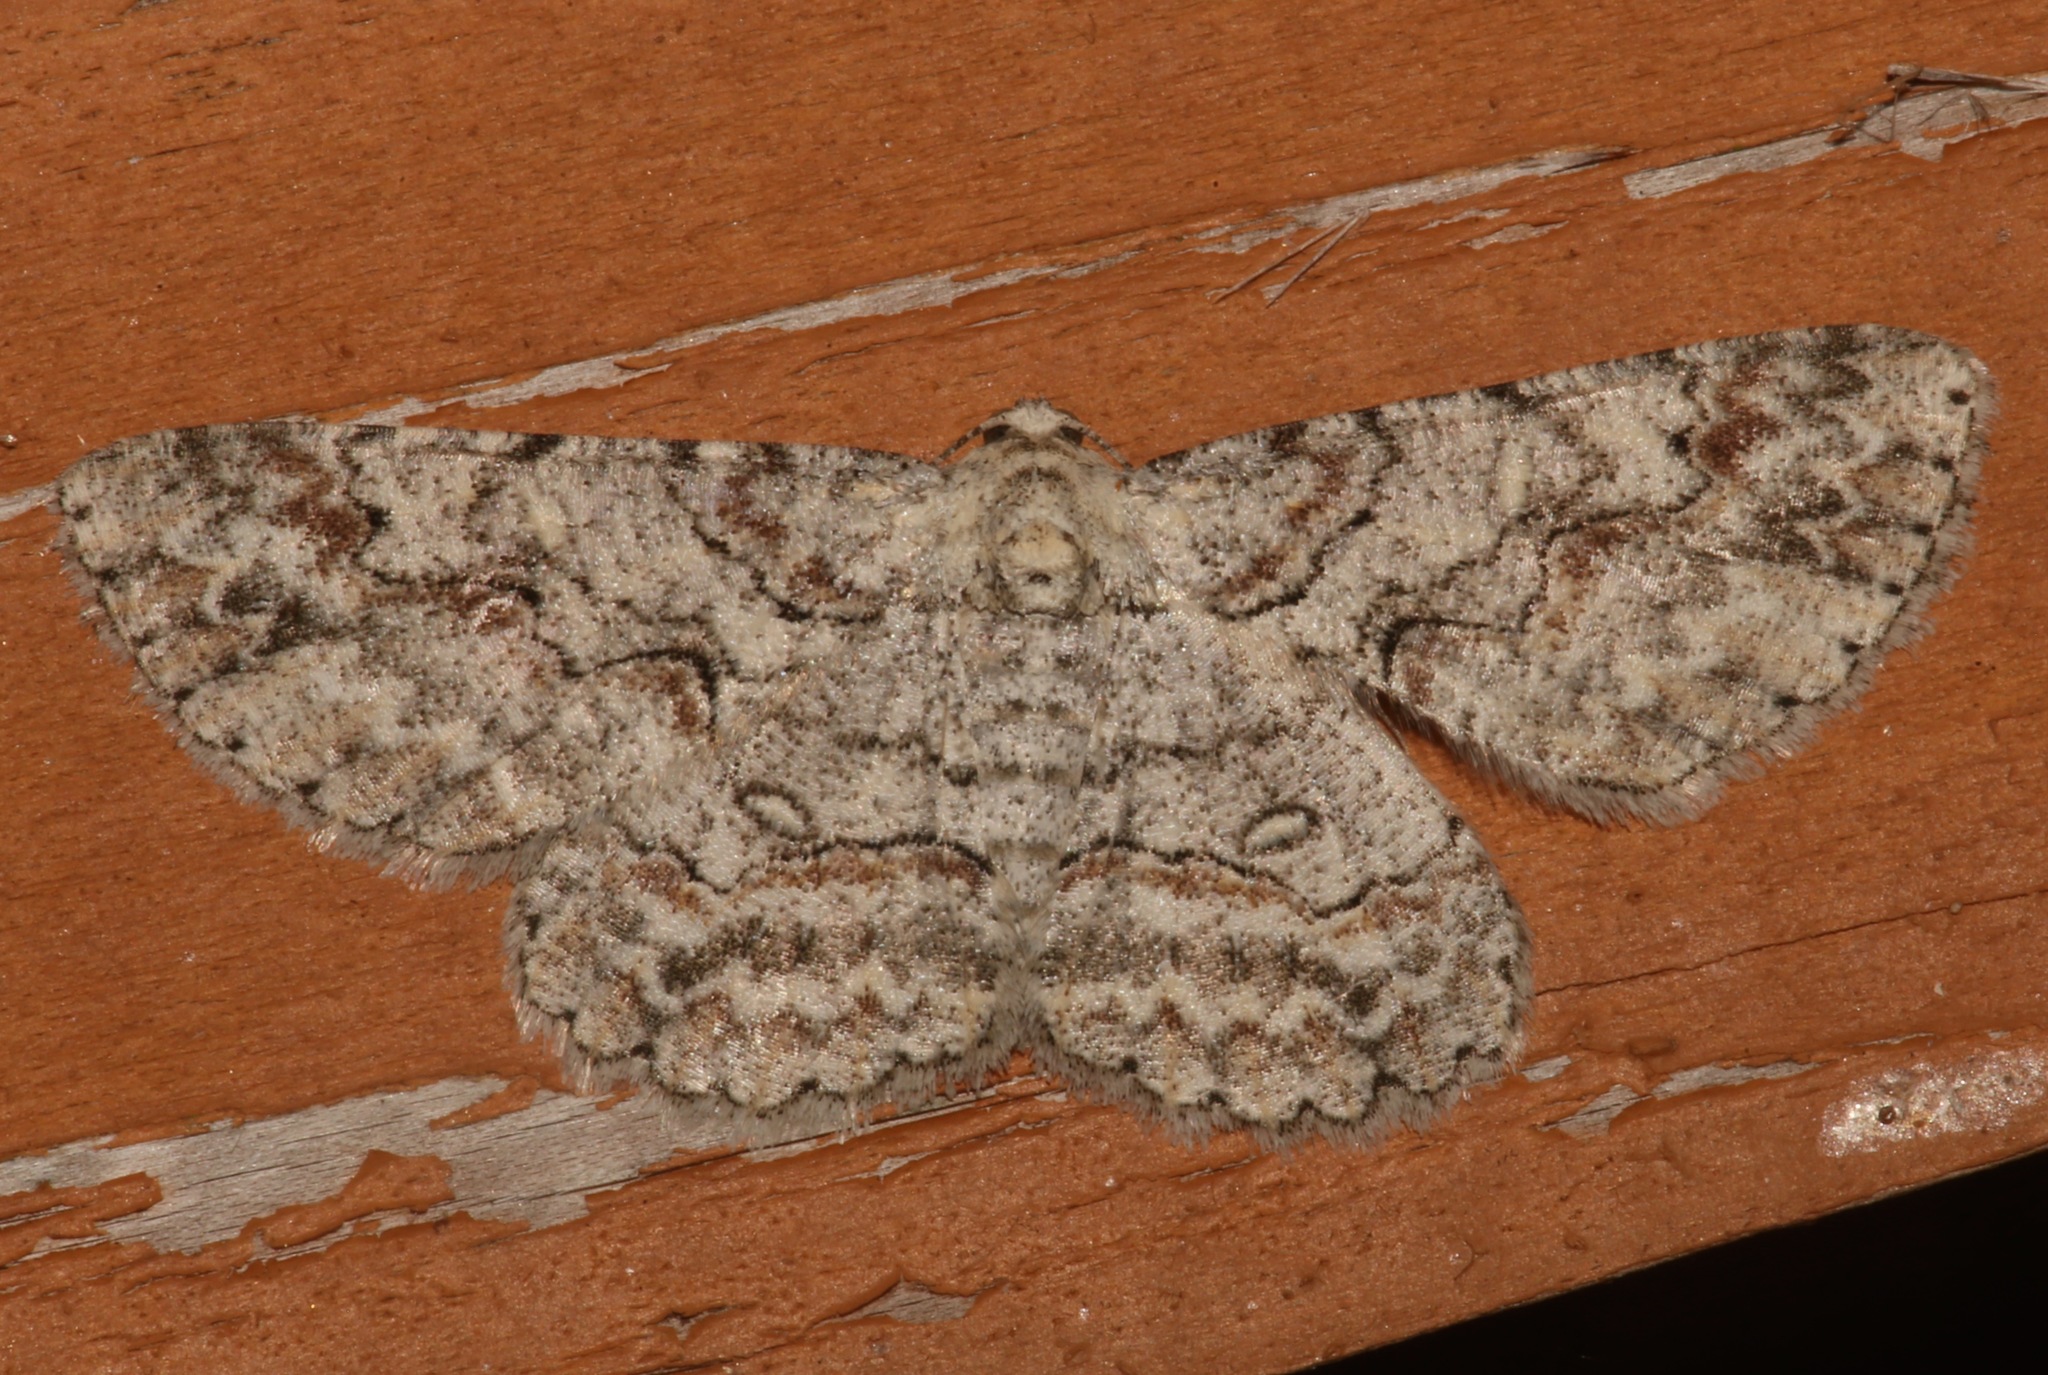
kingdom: Animalia
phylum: Arthropoda
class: Insecta
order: Lepidoptera
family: Geometridae
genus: Iridopsis
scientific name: Iridopsis defectaria
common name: Brown-shaded gray
